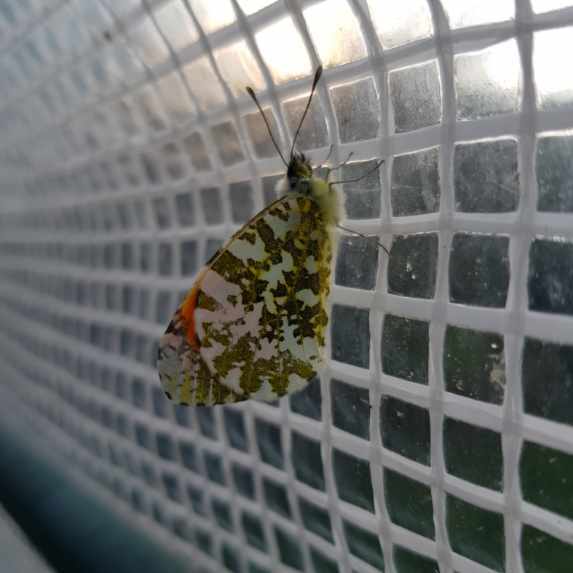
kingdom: Animalia
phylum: Arthropoda
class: Insecta
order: Lepidoptera
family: Pieridae
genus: Anthocharis
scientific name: Anthocharis cardamines
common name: Orange-tip
